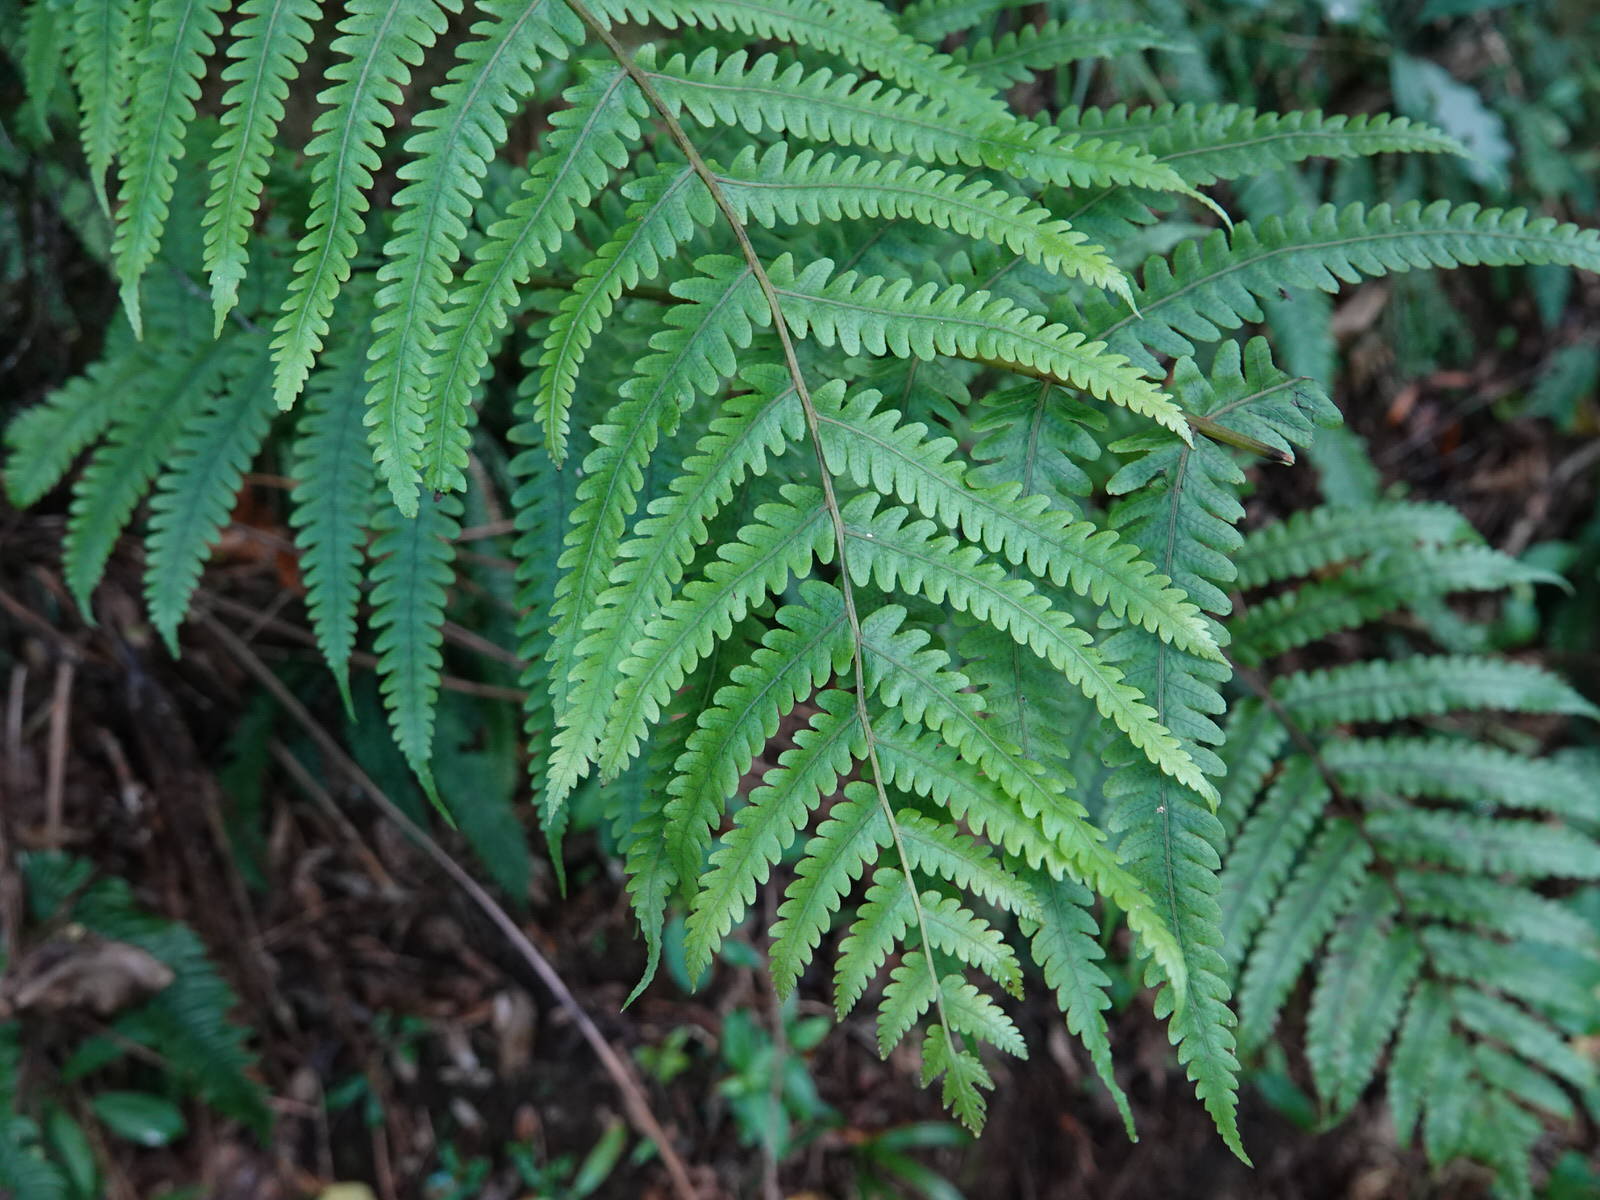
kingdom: Plantae
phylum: Tracheophyta
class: Polypodiopsida
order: Polypodiales
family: Thelypteridaceae
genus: Pakau
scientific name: Pakau pennigera
